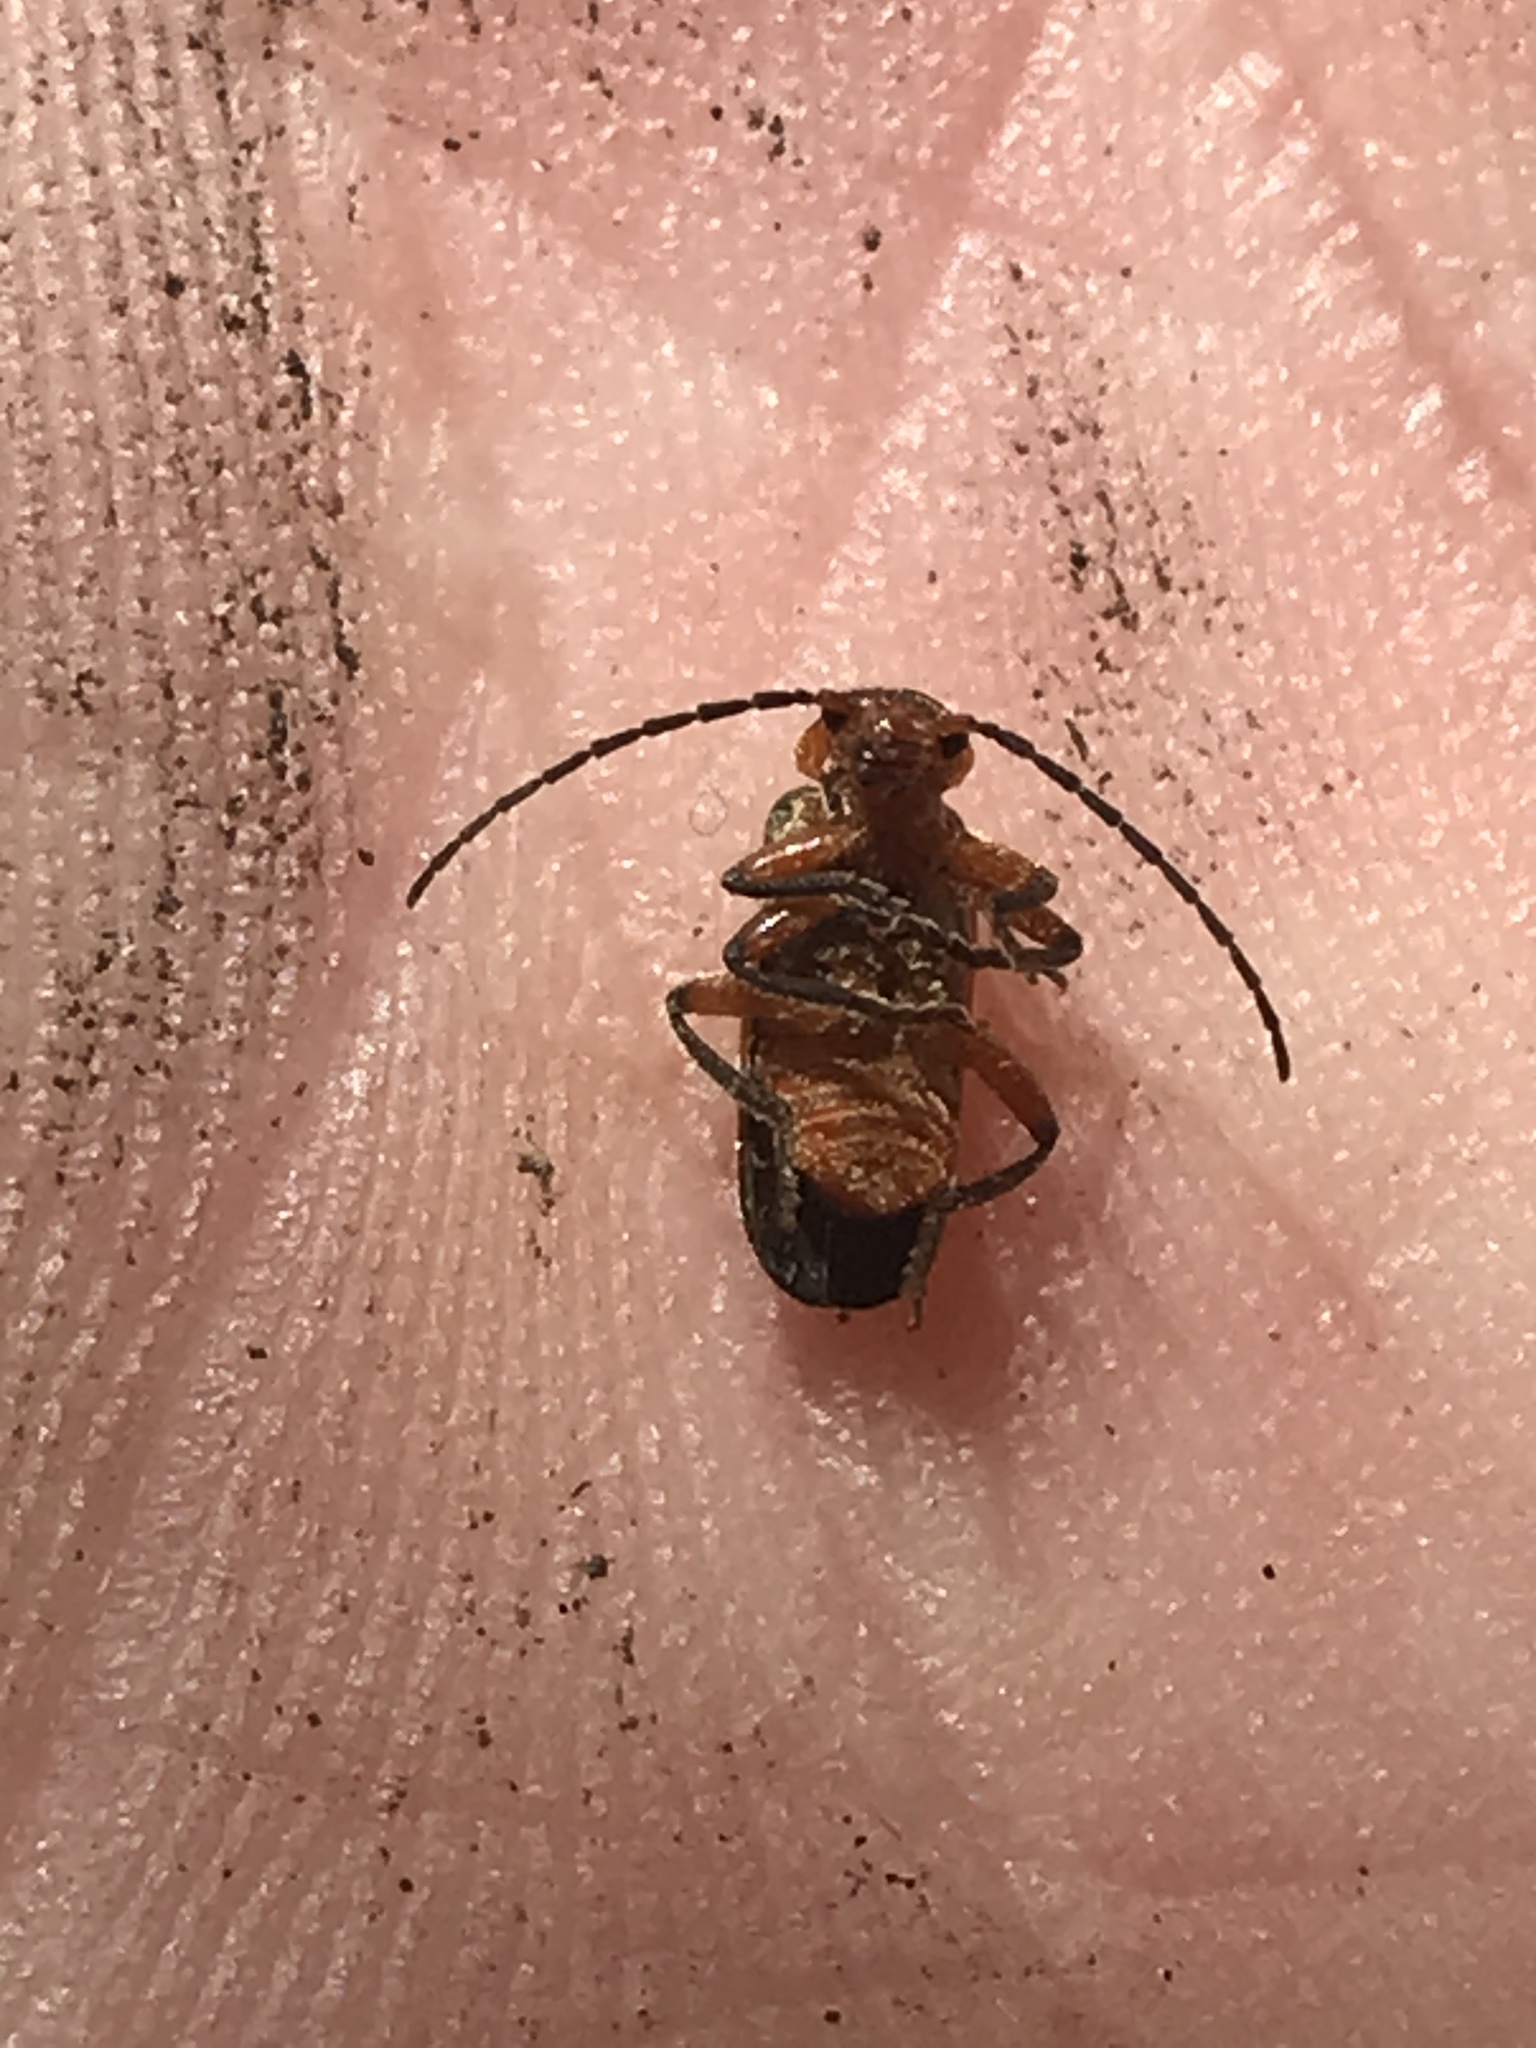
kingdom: Animalia
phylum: Arthropoda
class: Insecta
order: Coleoptera
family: Cantharidae
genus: Atalantycha
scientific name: Atalantycha bilineata
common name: Two-lined leatherwing
